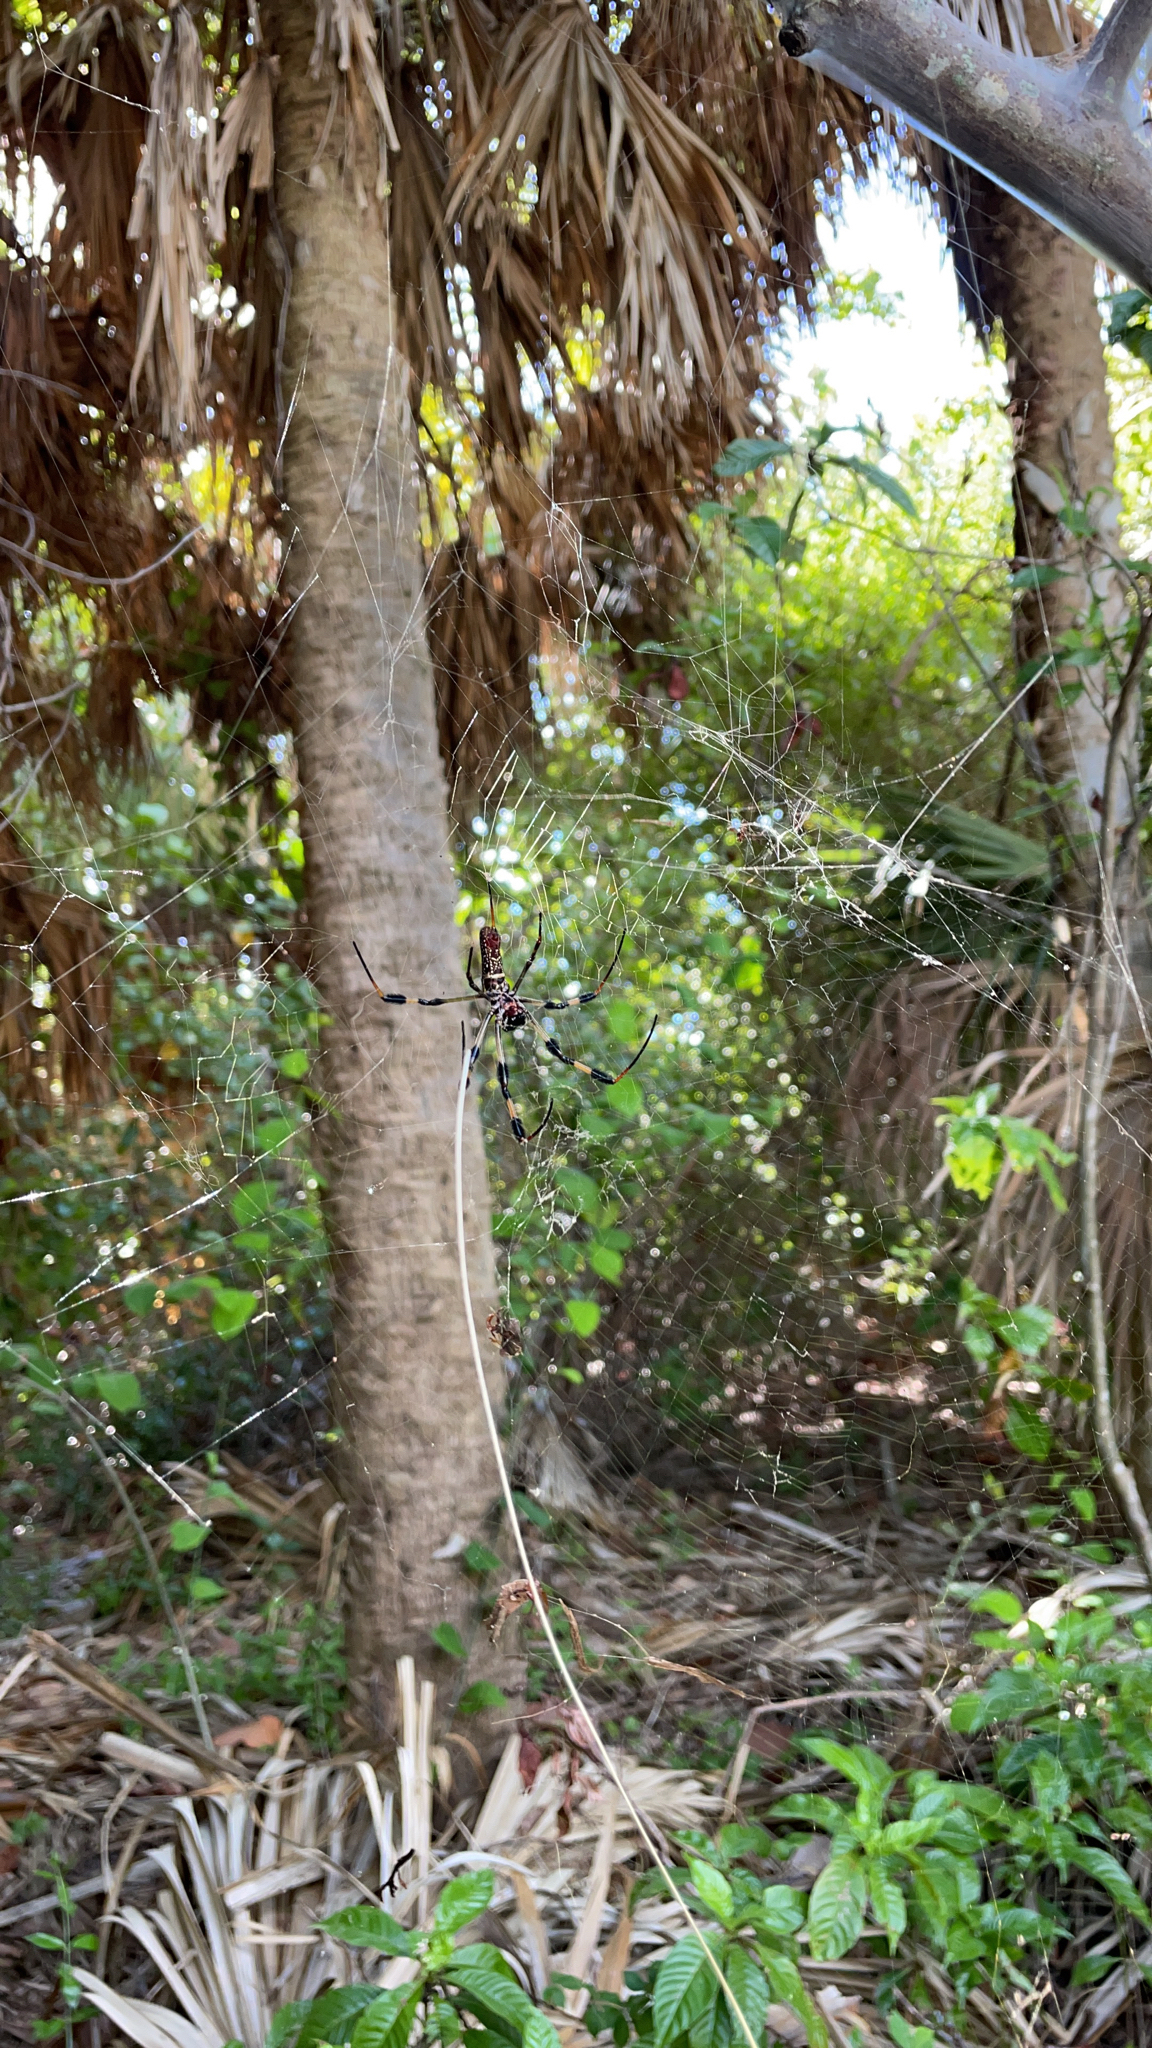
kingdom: Animalia
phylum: Arthropoda
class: Arachnida
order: Araneae
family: Araneidae
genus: Trichonephila
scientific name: Trichonephila clavipes
